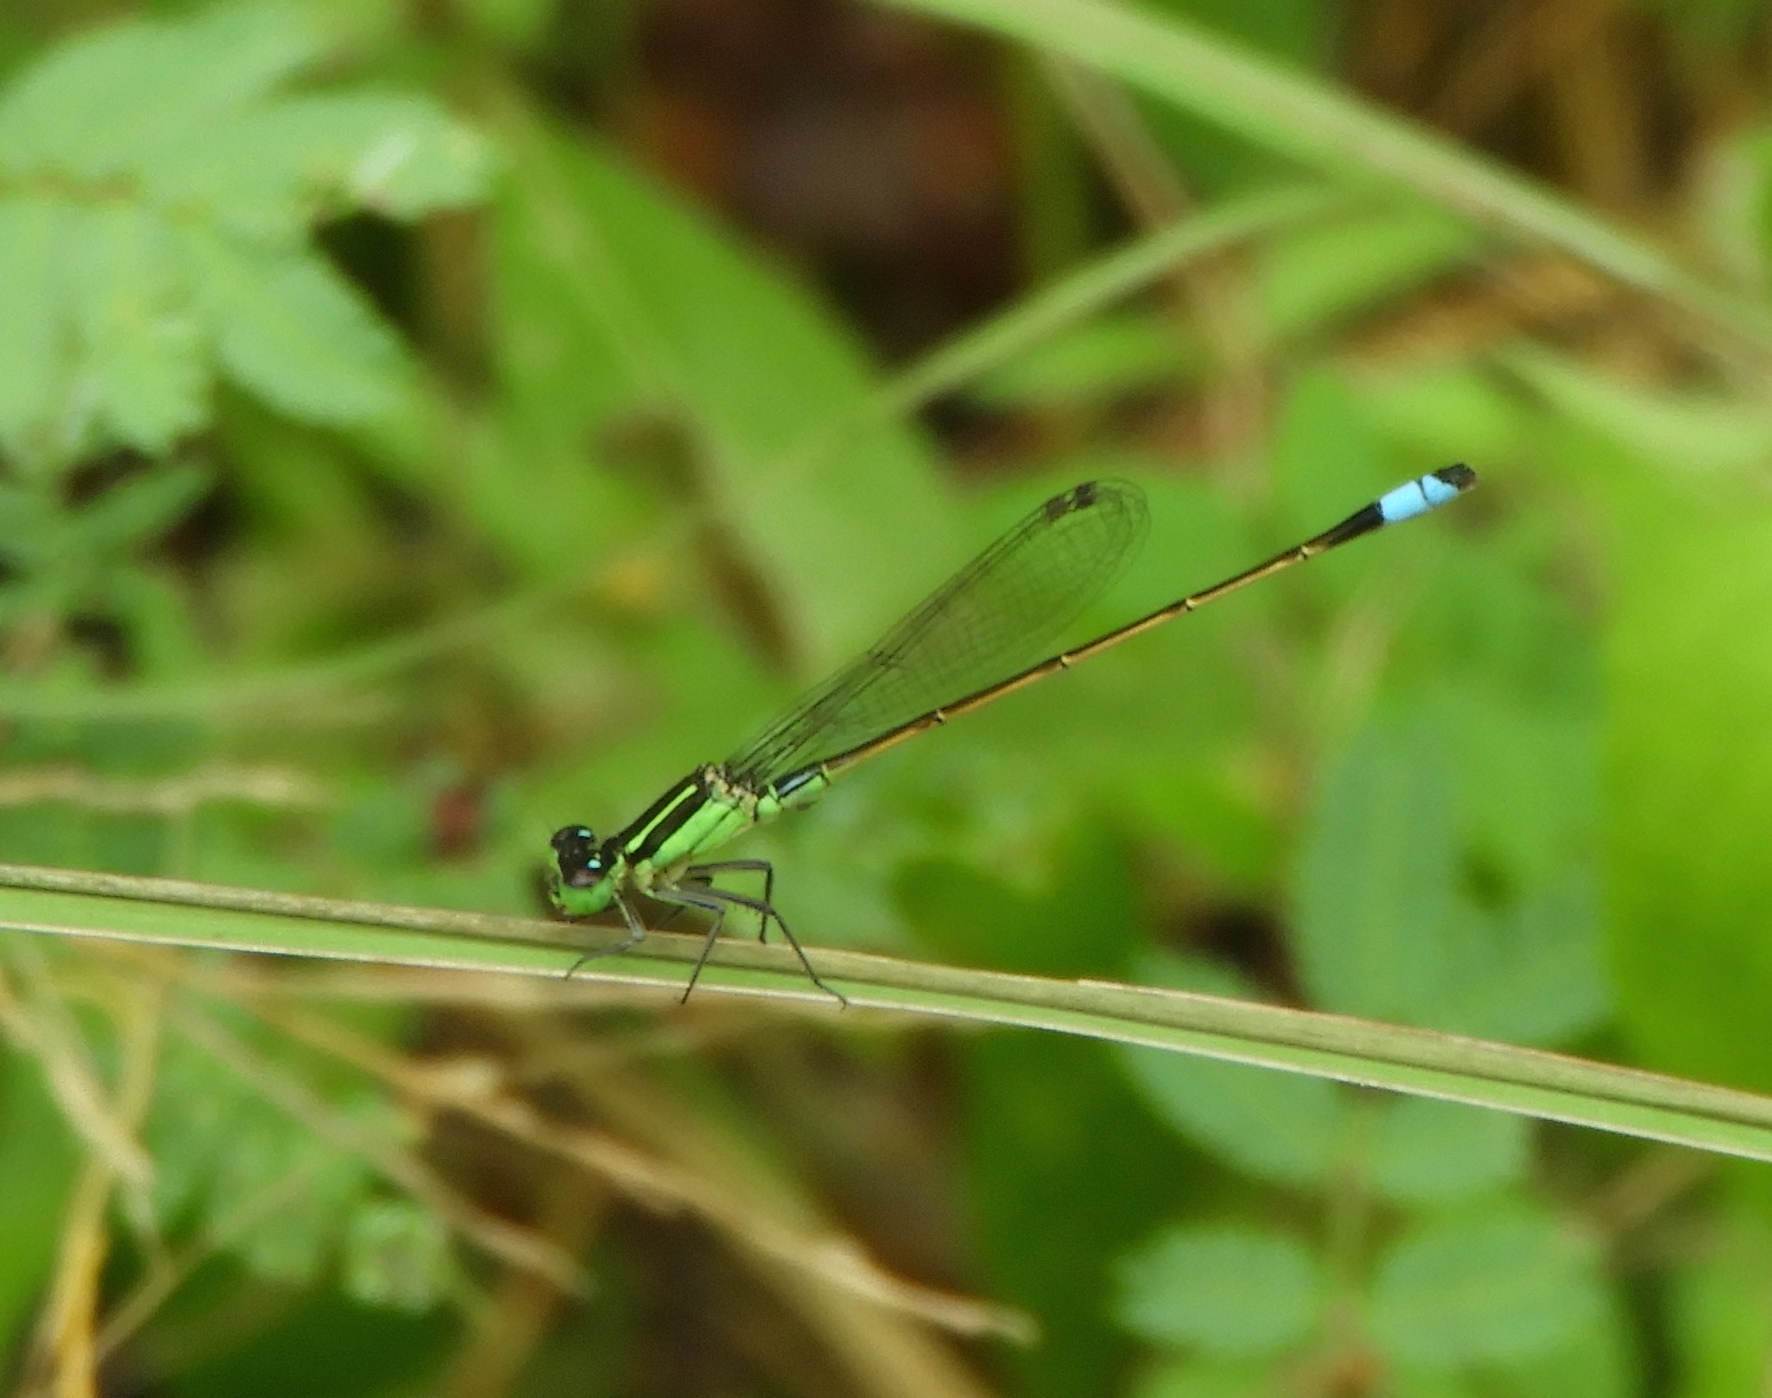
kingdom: Animalia
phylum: Arthropoda
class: Insecta
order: Odonata
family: Coenagrionidae
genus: Ischnura
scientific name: Ischnura ramburii
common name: Rambur's forktail
